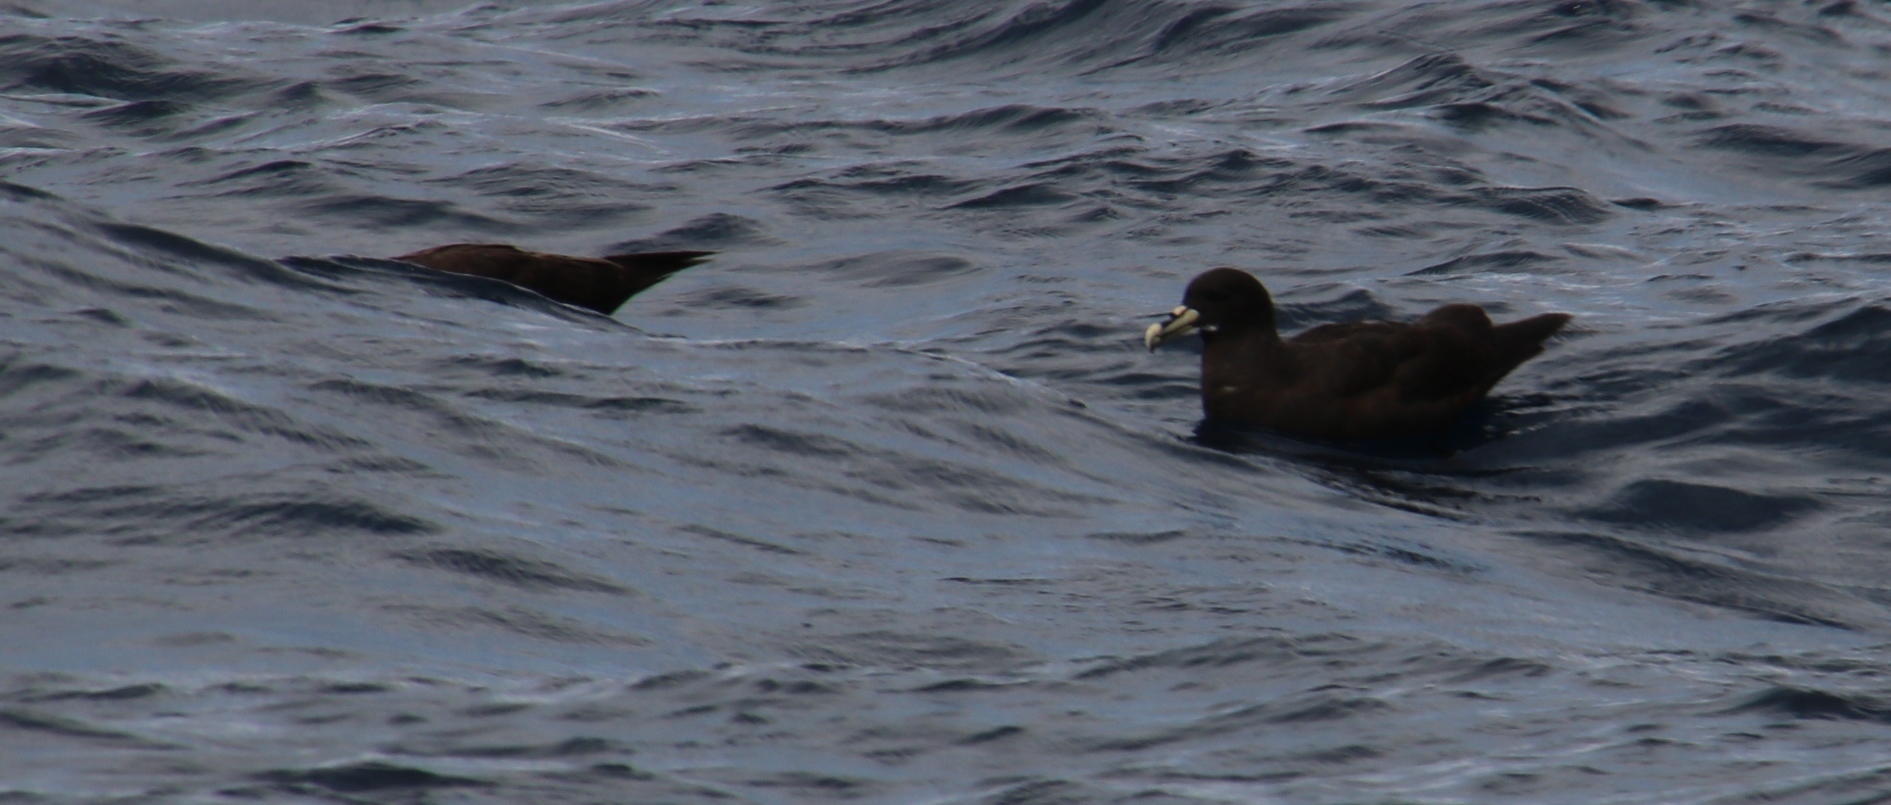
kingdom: Animalia
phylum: Chordata
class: Aves
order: Procellariiformes
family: Procellariidae
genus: Procellaria
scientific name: Procellaria aequinoctialis
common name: White-chinned petrel
